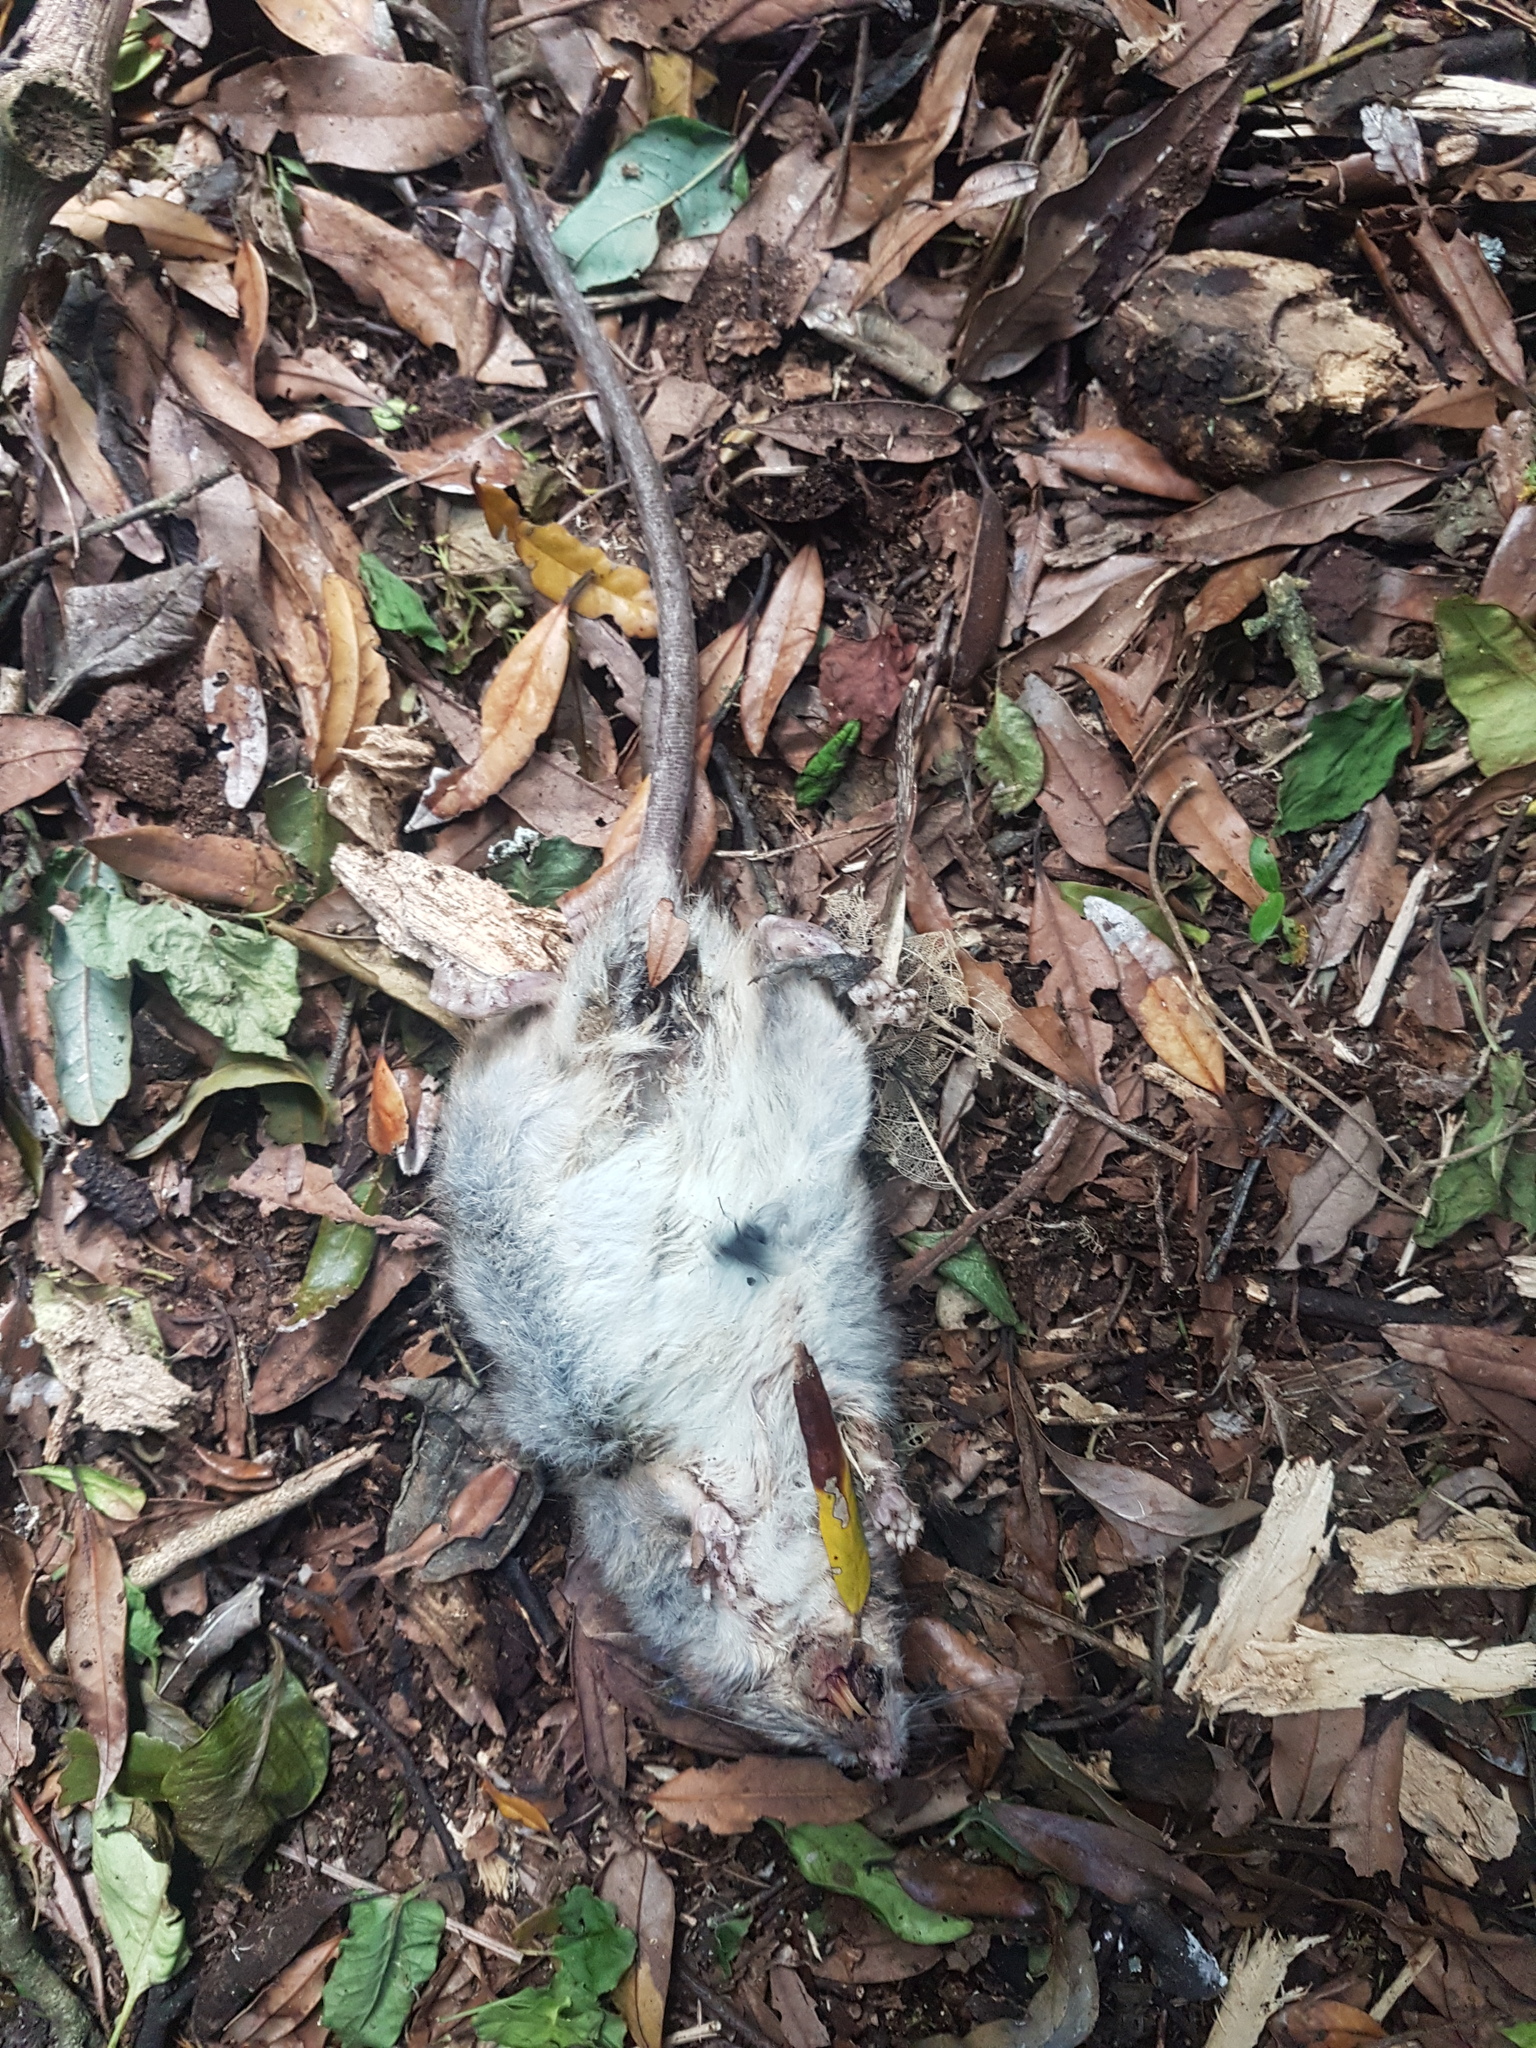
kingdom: Animalia
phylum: Chordata
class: Mammalia
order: Rodentia
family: Muridae
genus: Rattus
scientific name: Rattus rattus
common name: Black rat
